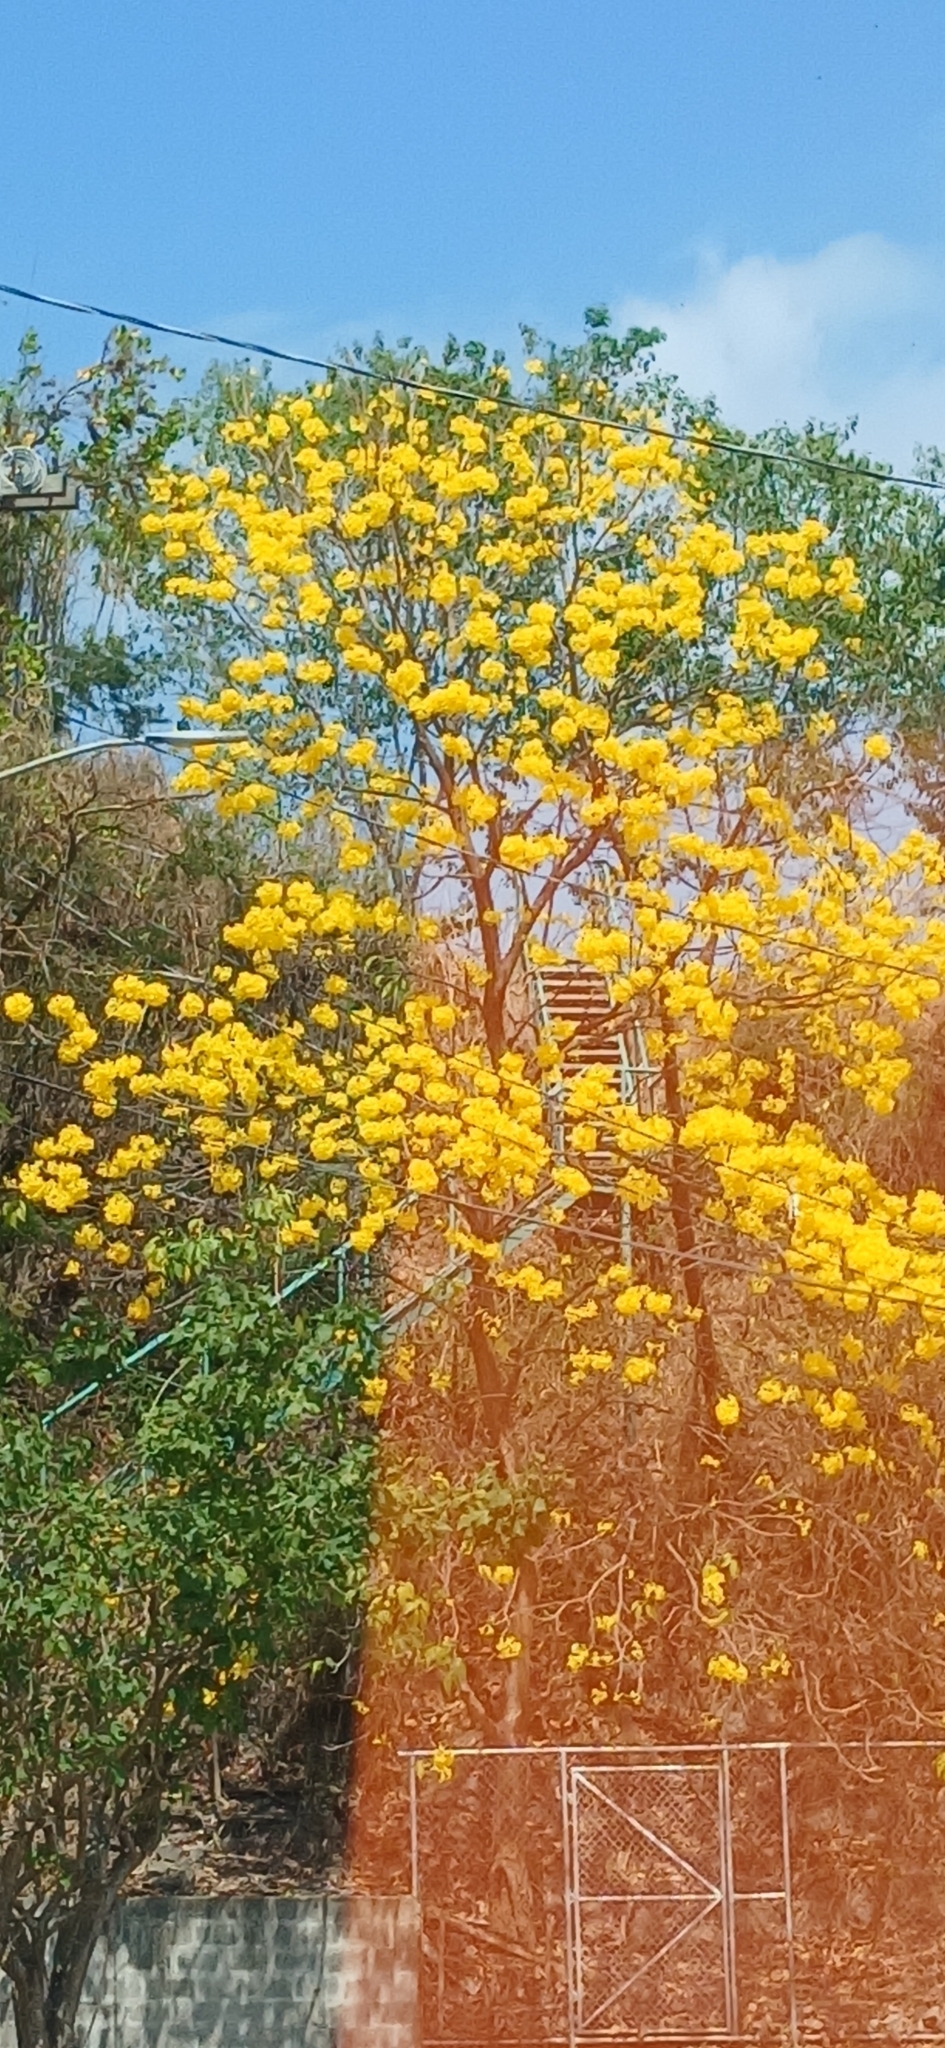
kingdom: Plantae
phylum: Tracheophyta
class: Magnoliopsida
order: Lamiales
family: Bignoniaceae
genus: Handroanthus
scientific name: Handroanthus guayacan
